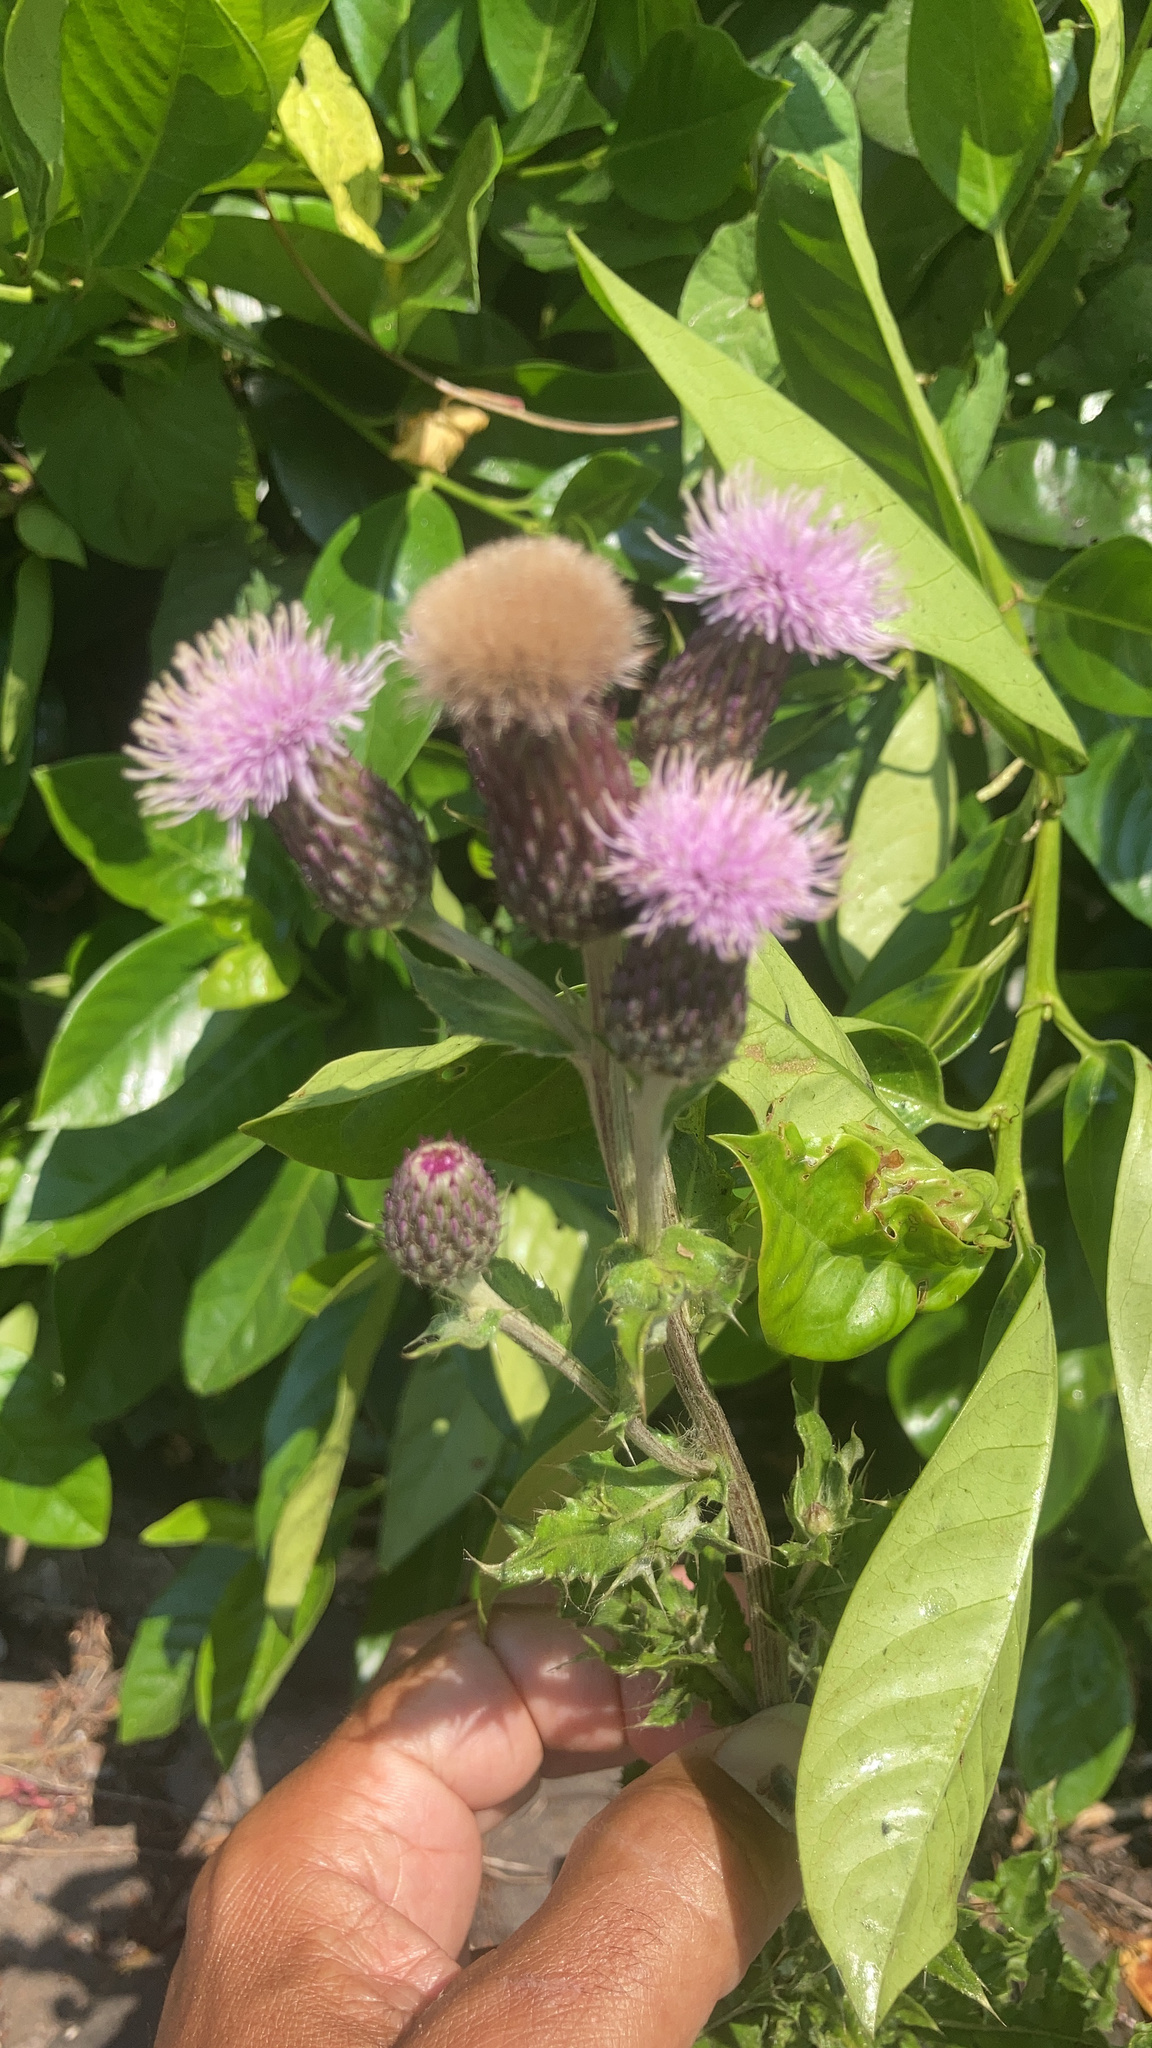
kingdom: Plantae
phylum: Tracheophyta
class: Magnoliopsida
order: Asterales
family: Asteraceae
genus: Cirsium
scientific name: Cirsium arvense
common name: Creeping thistle
